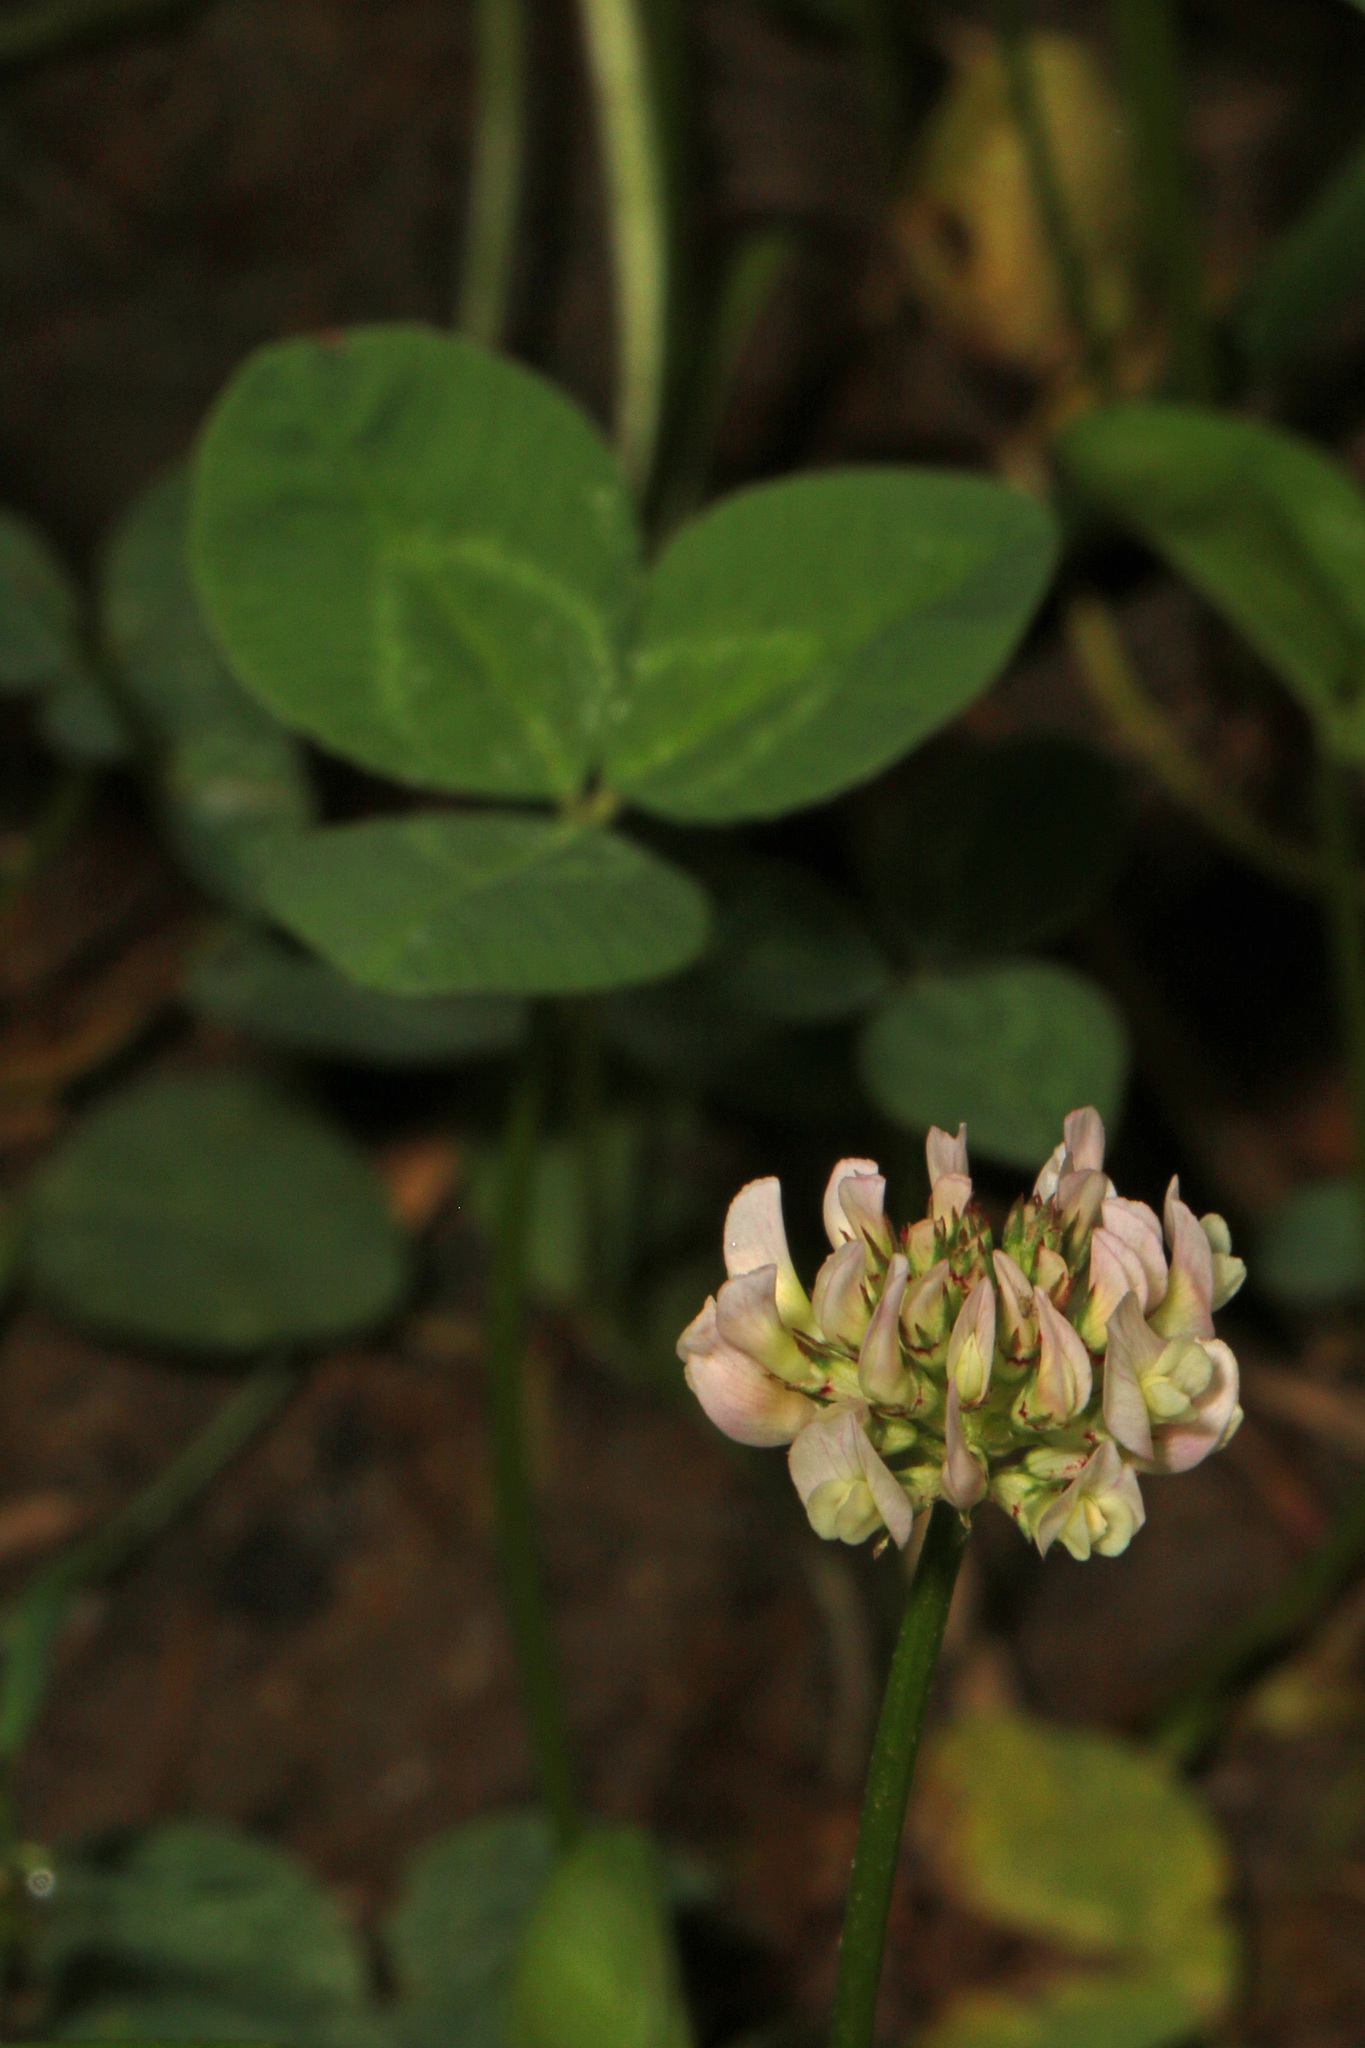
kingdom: Plantae
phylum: Tracheophyta
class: Magnoliopsida
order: Fabales
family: Fabaceae
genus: Trifolium
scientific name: Trifolium repens
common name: White clover
